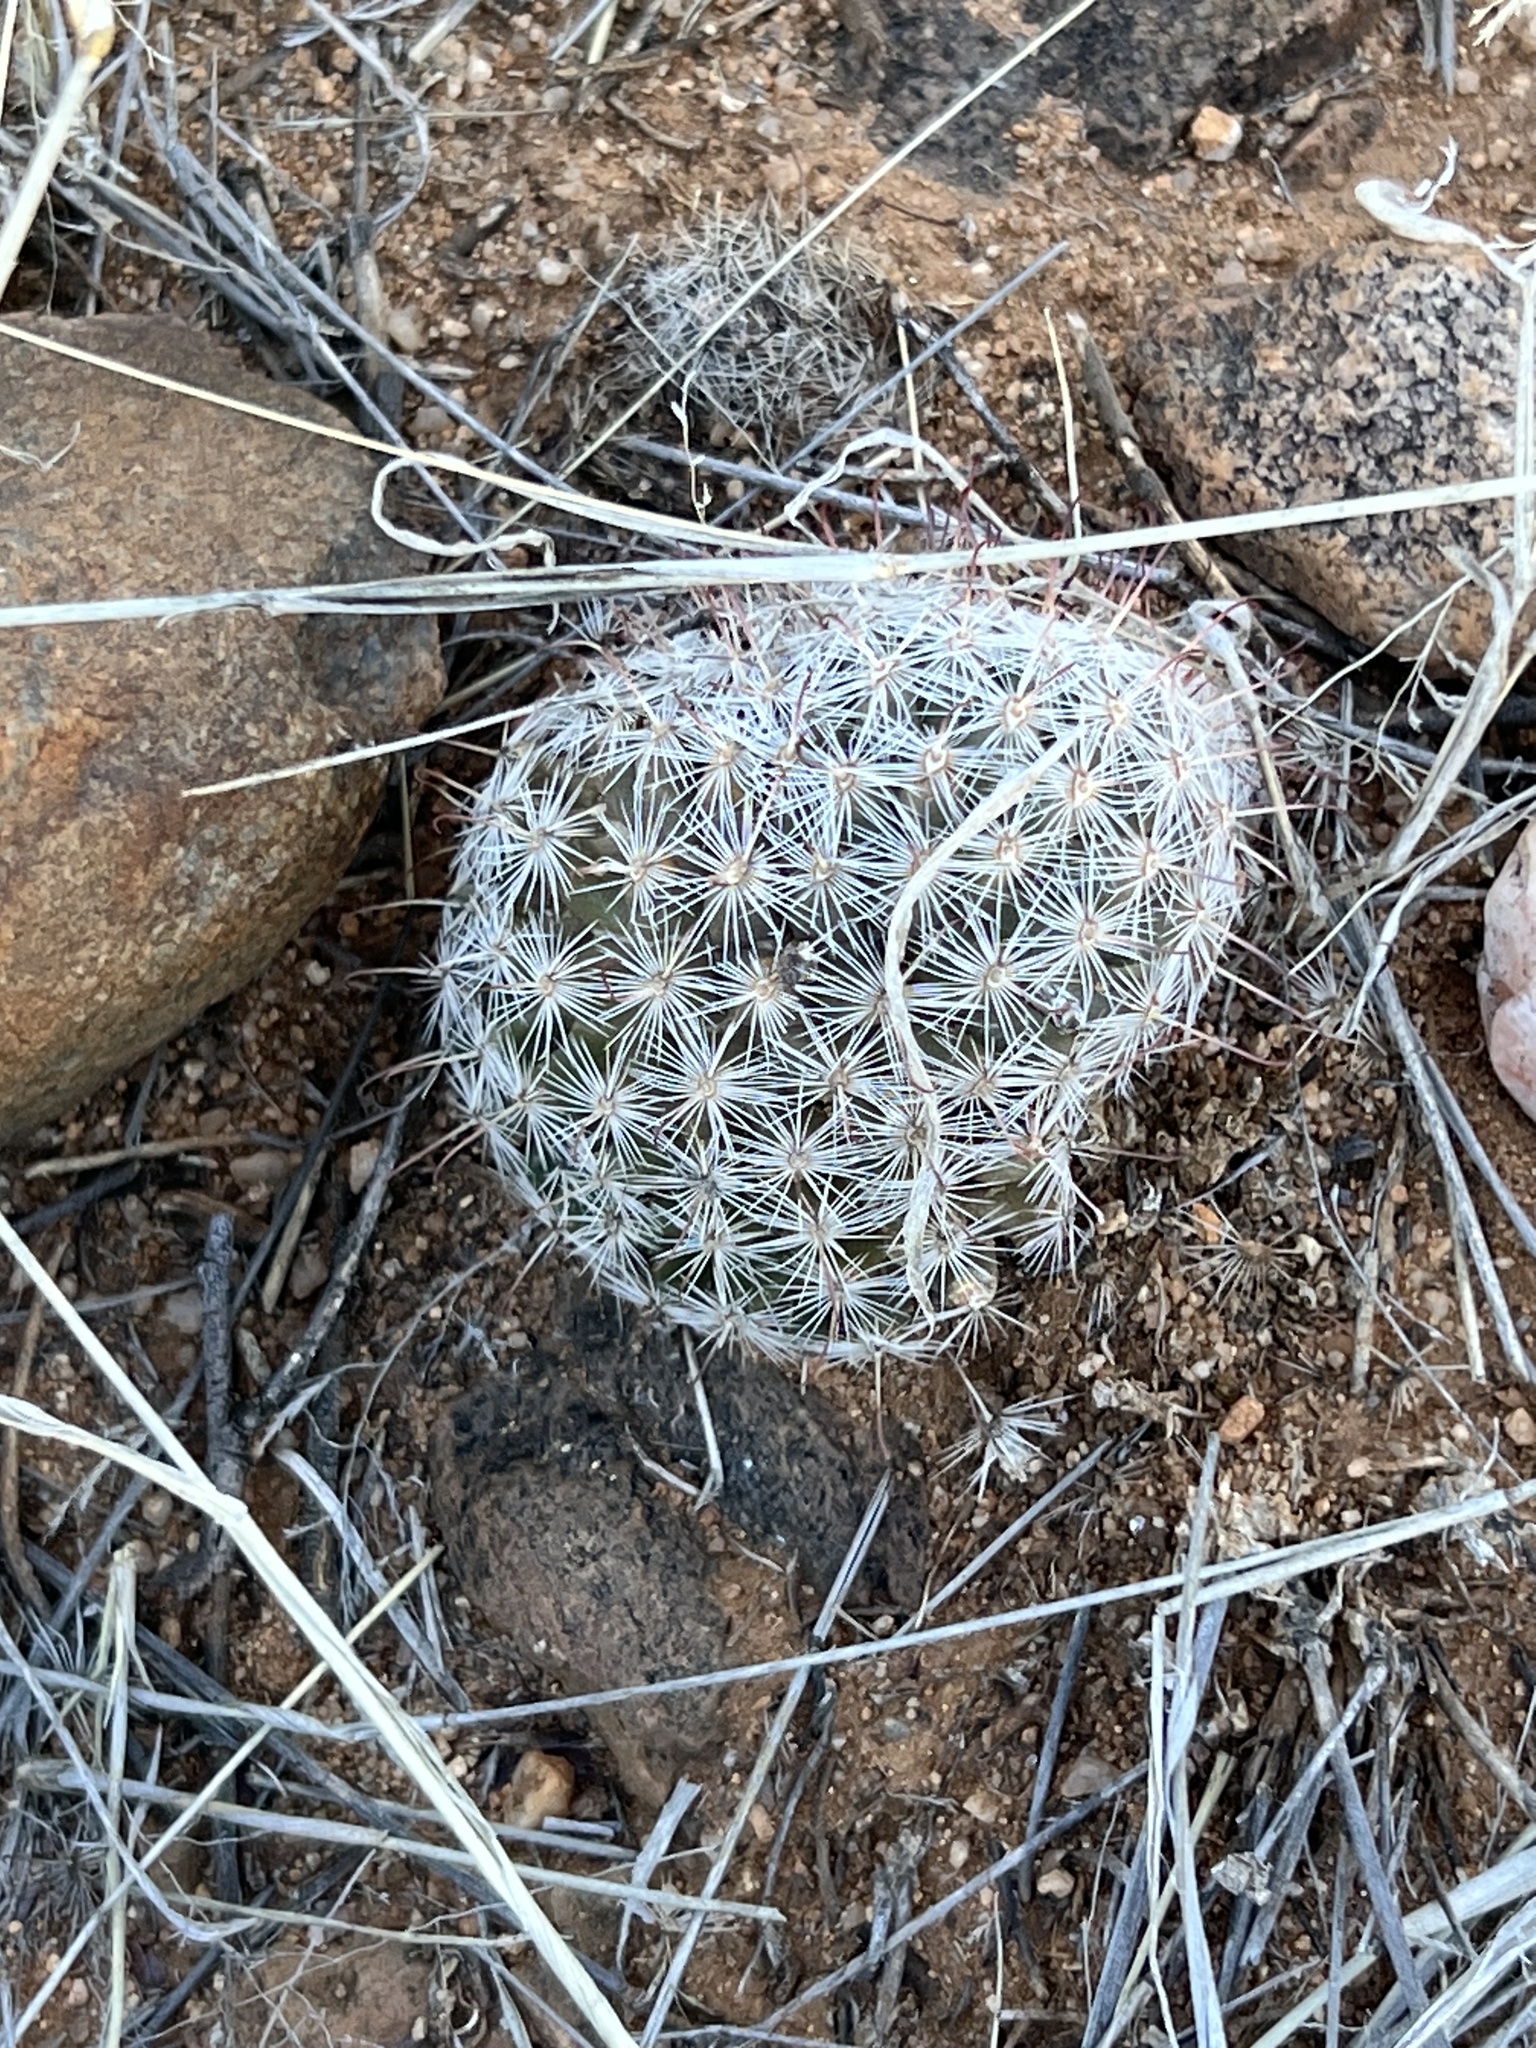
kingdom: Plantae
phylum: Tracheophyta
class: Magnoliopsida
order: Caryophyllales
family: Cactaceae
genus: Cochemiea
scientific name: Cochemiea grahamii
